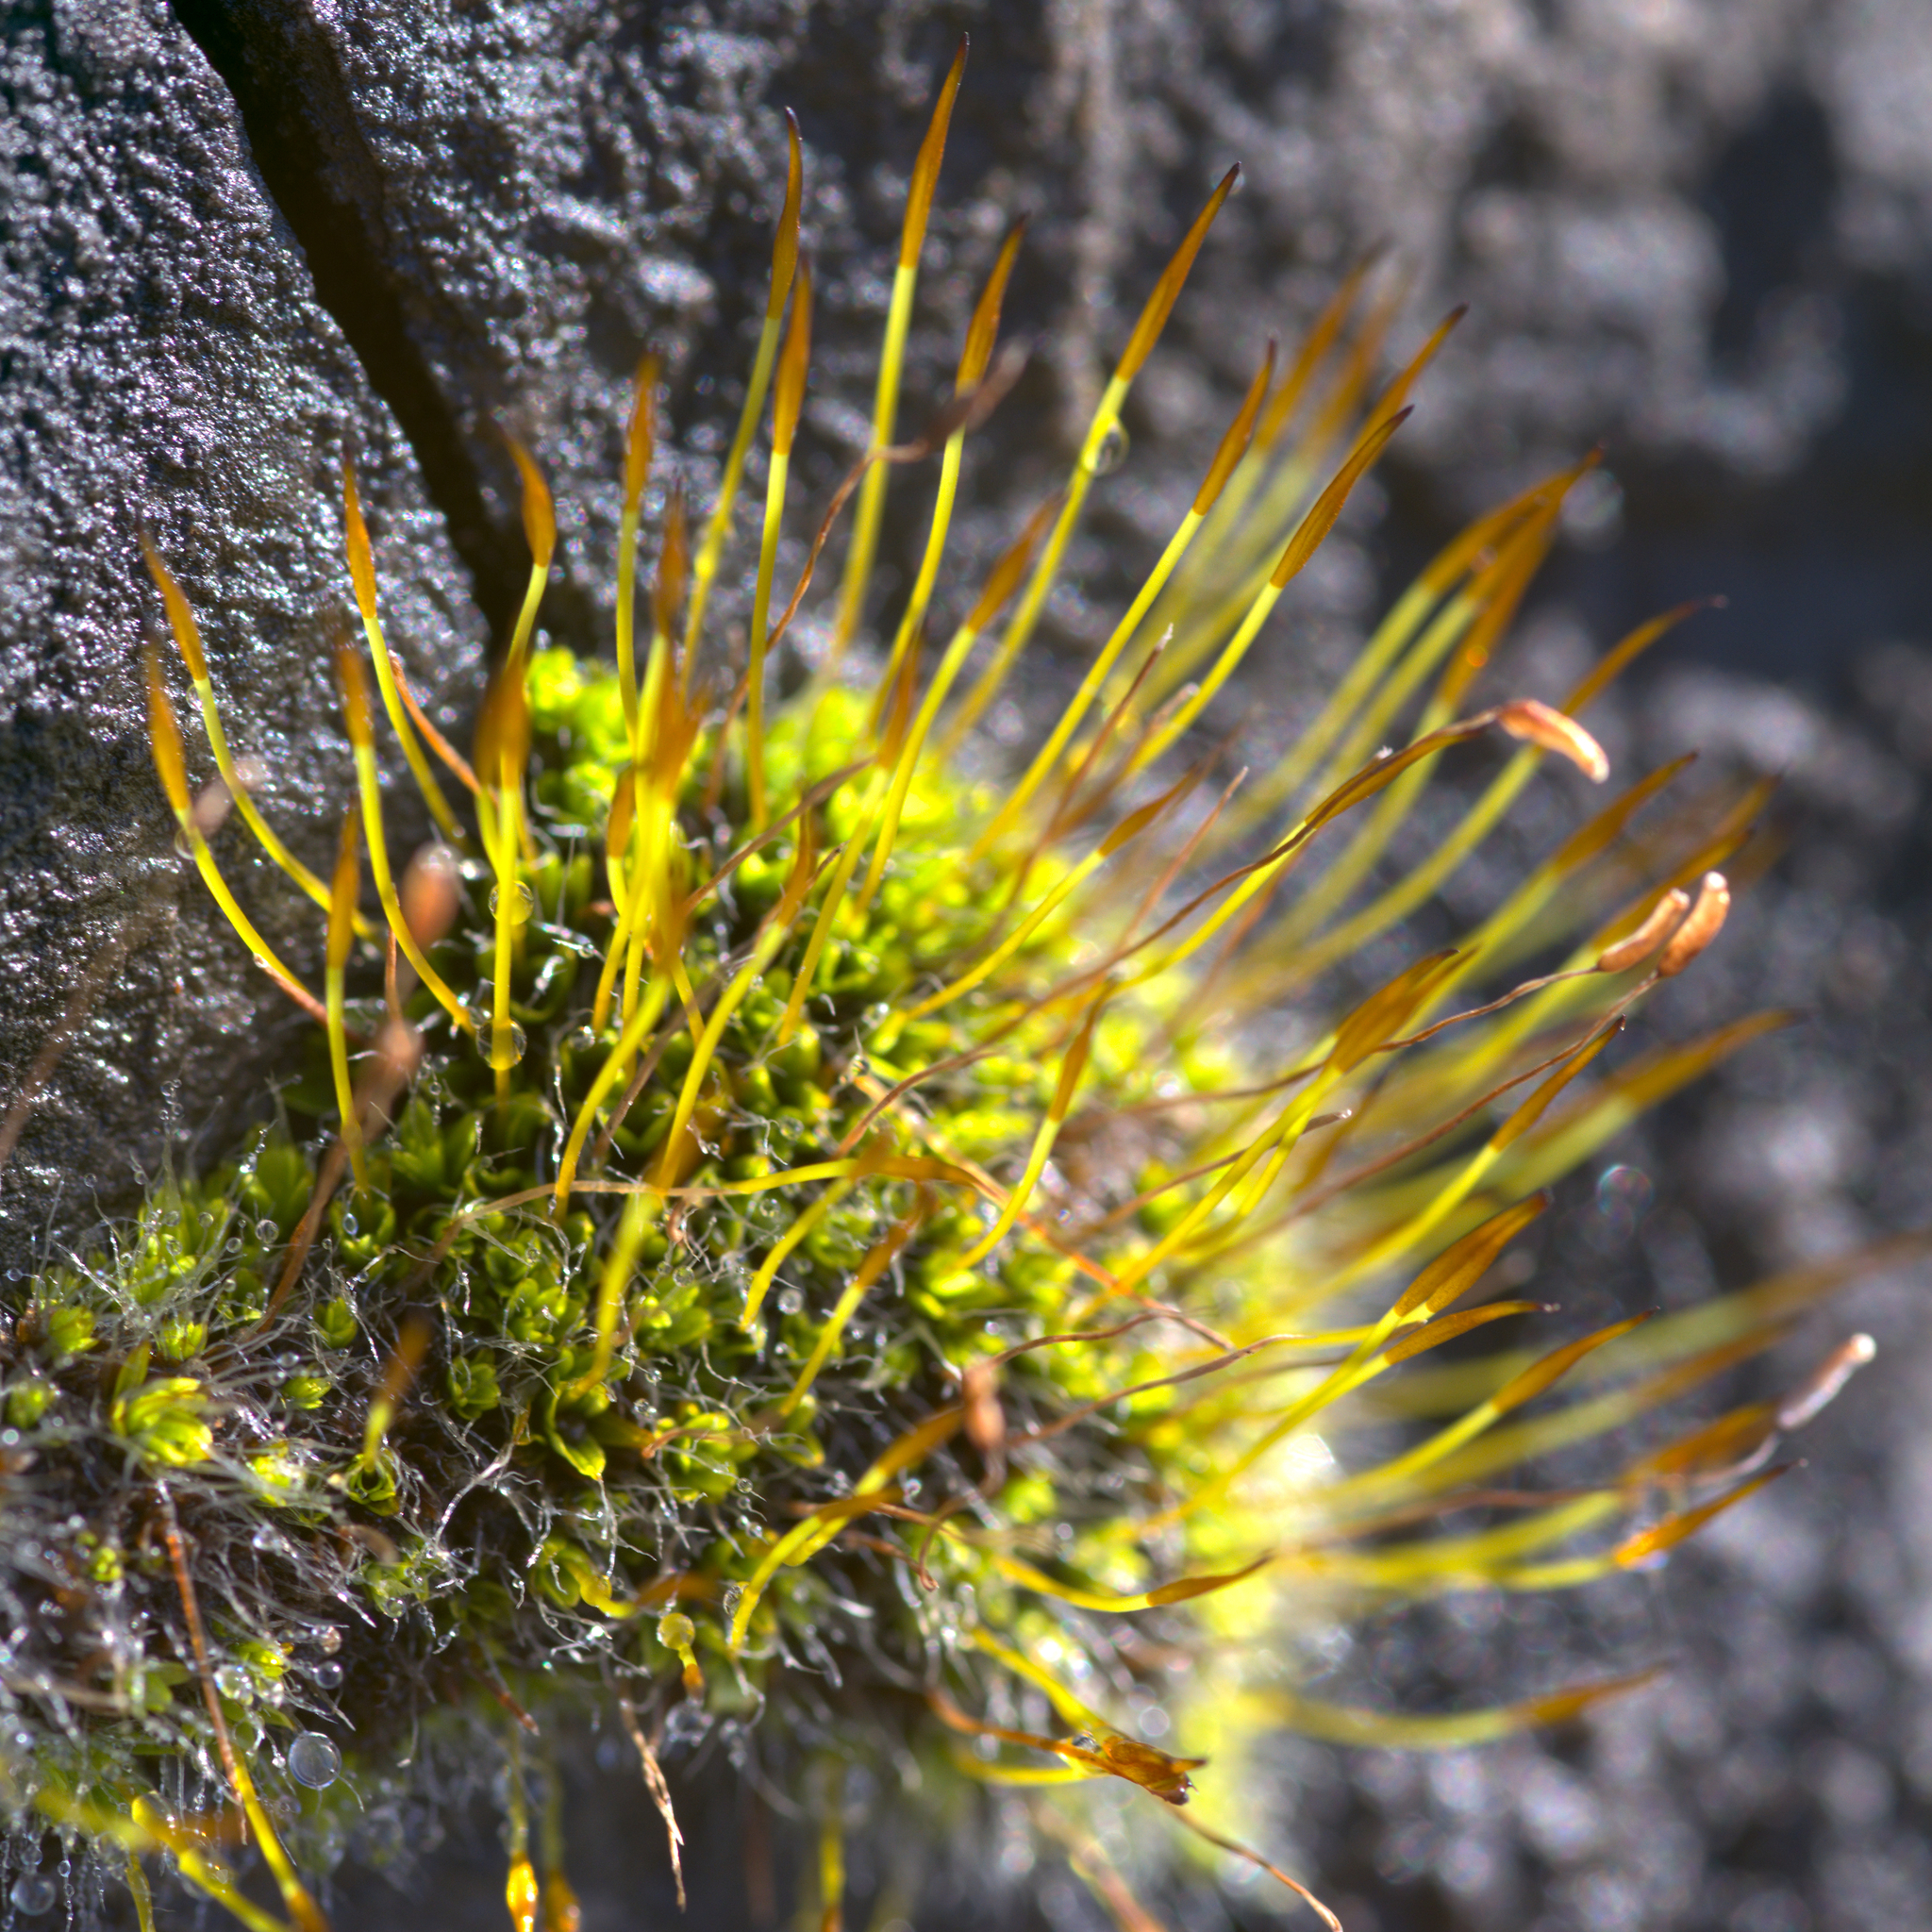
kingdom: Plantae
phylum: Bryophyta
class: Bryopsida
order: Pottiales
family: Pottiaceae
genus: Tortula
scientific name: Tortula muralis
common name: Wall screw-moss
